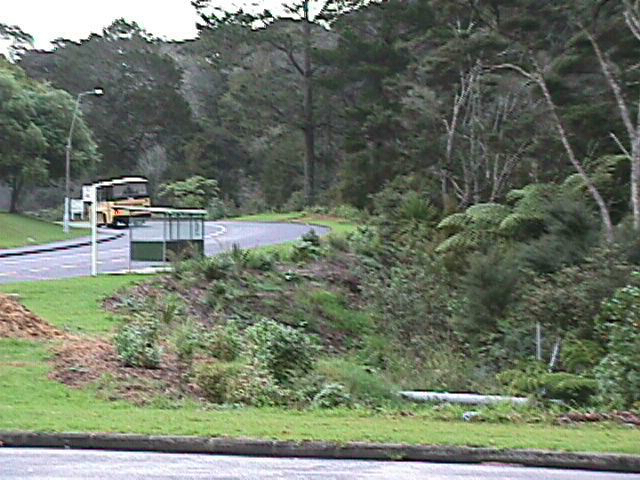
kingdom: Plantae
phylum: Tracheophyta
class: Pinopsida
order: Pinales
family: Pinaceae
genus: Pinus
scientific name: Pinus radiata
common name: Monterey pine
